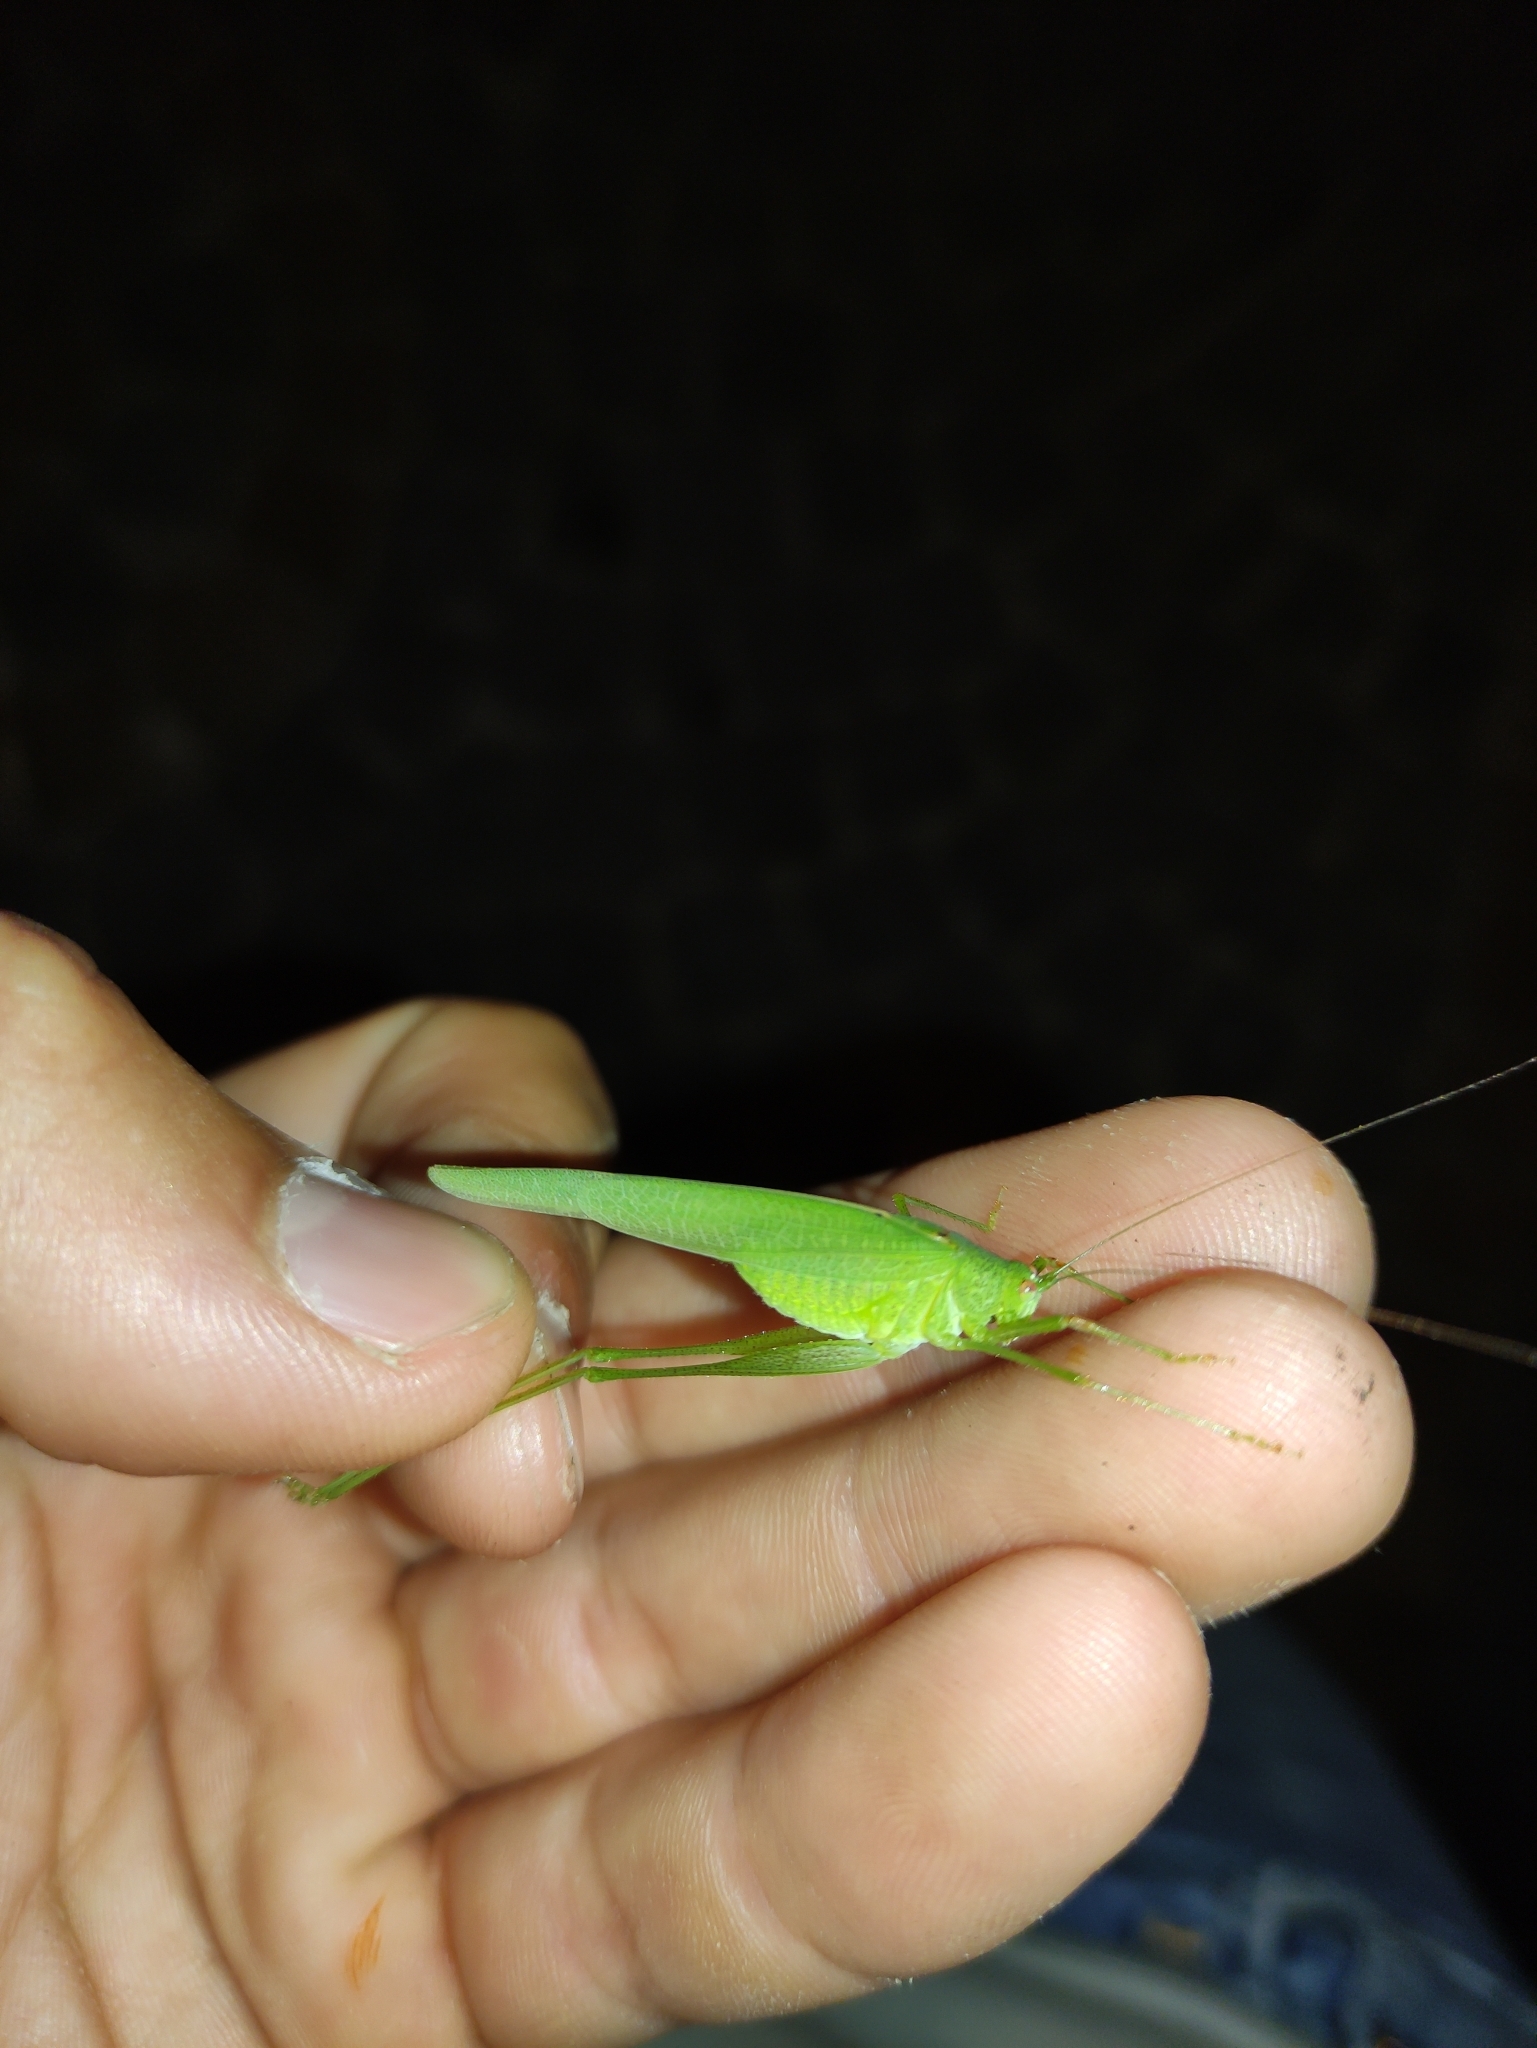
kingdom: Animalia
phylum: Arthropoda
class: Insecta
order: Orthoptera
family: Tettigoniidae
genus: Phaneroptera
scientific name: Phaneroptera nana
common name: Southern sickle bush-cricket
